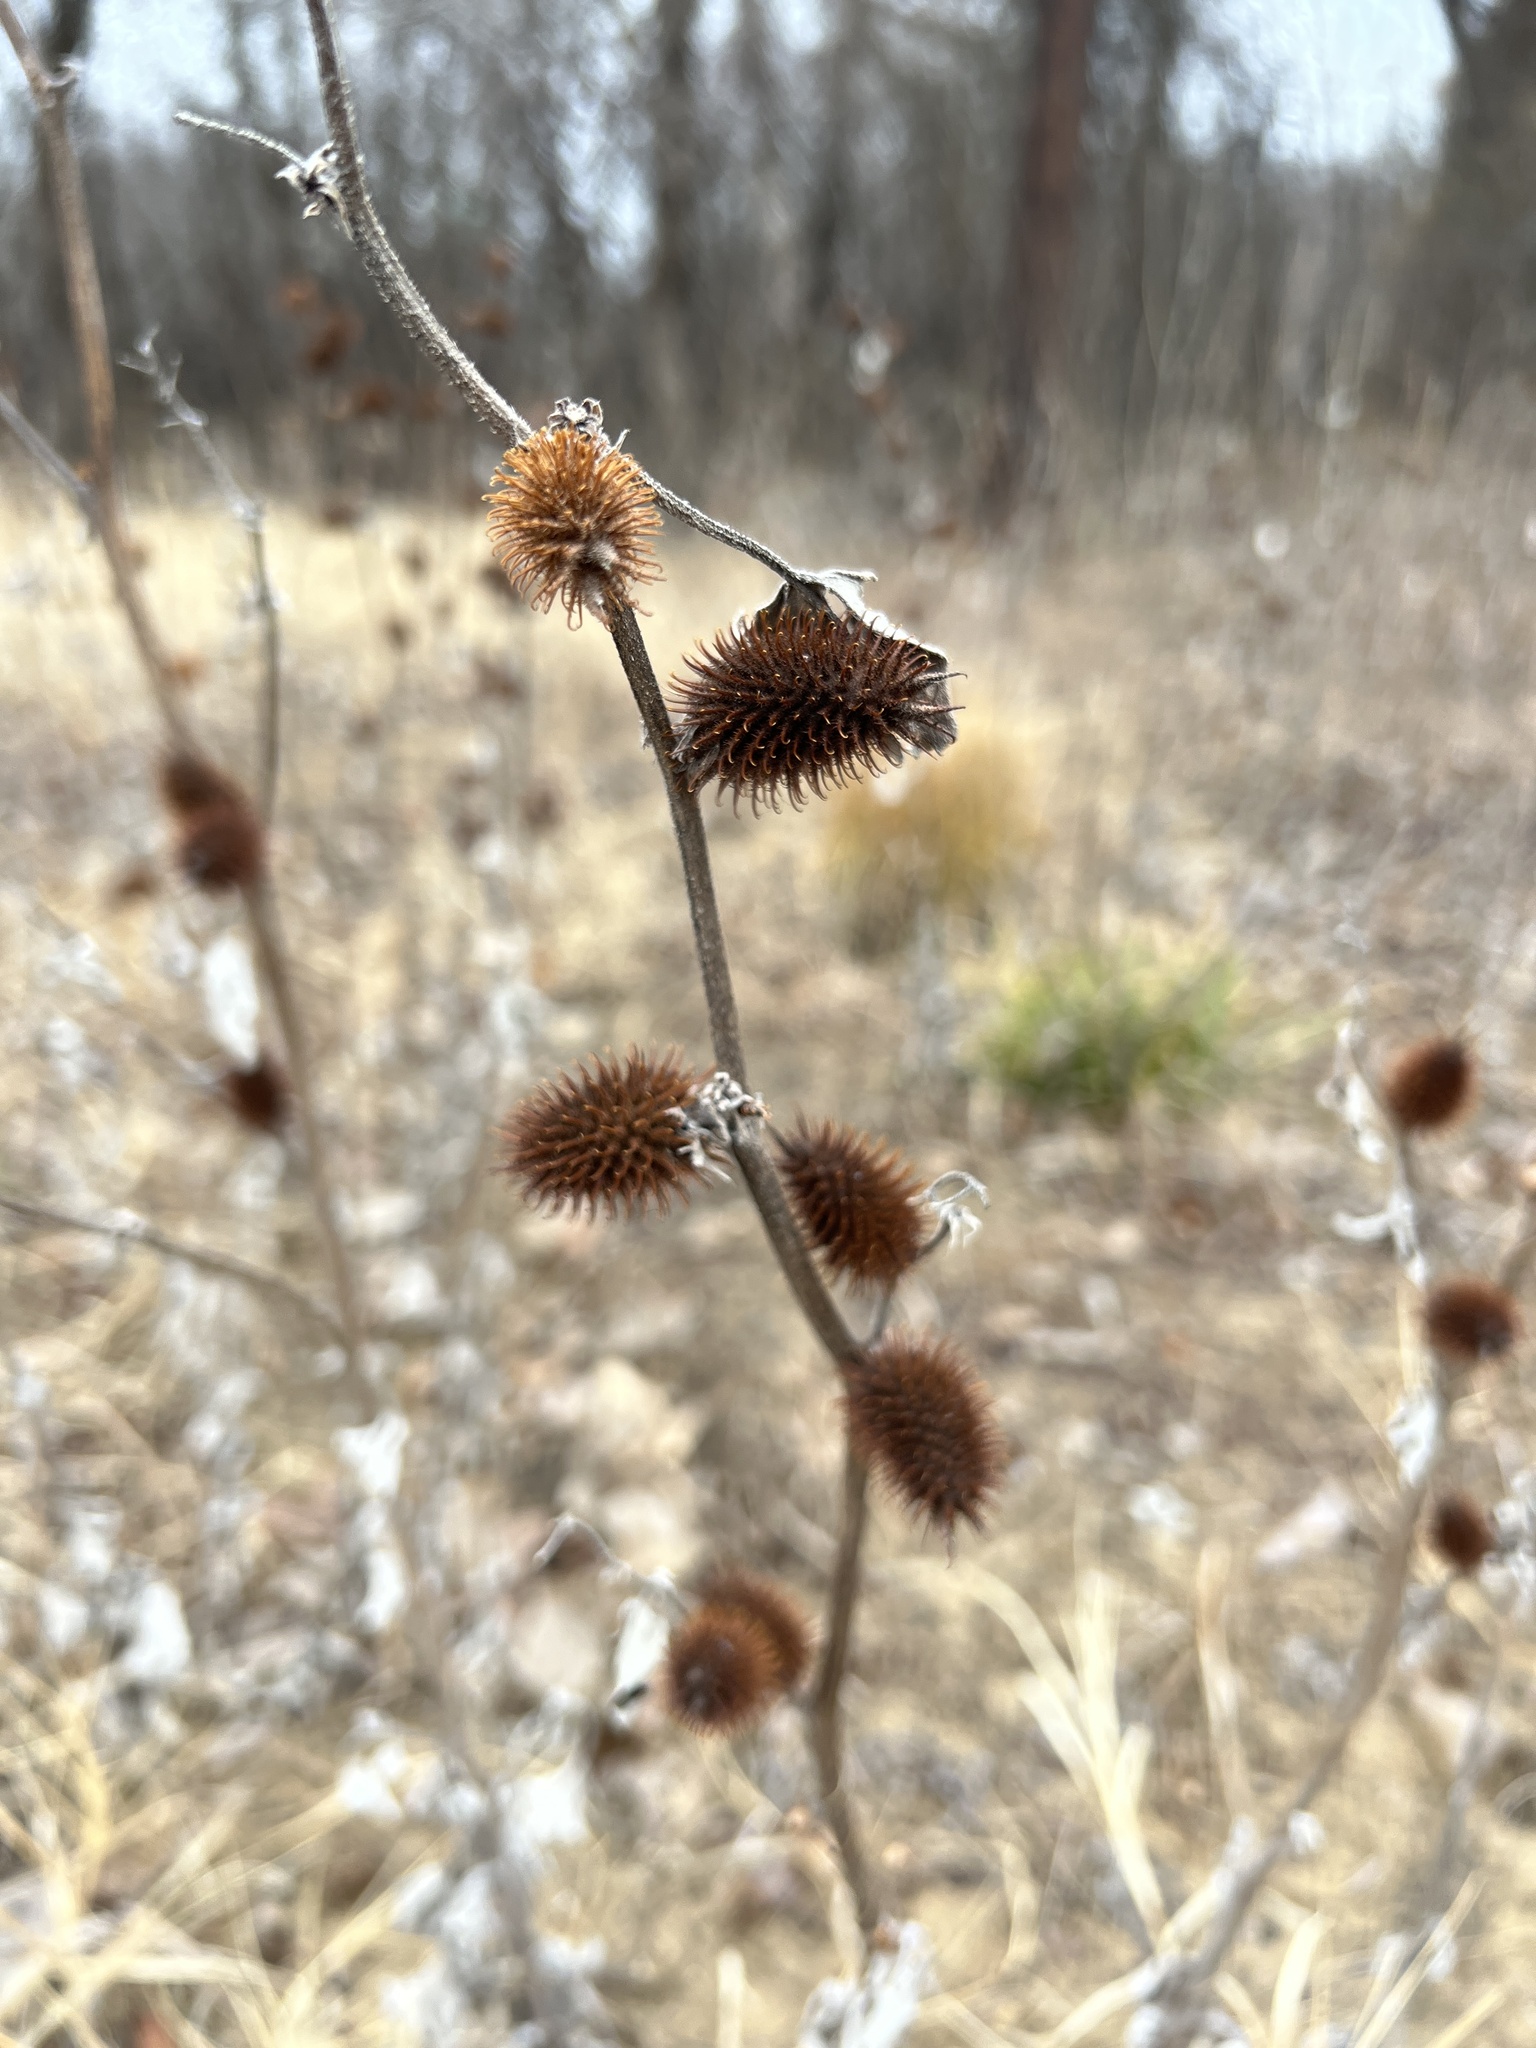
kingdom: Plantae
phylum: Tracheophyta
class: Magnoliopsida
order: Asterales
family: Asteraceae
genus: Xanthium
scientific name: Xanthium strumarium
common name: Rough cocklebur
